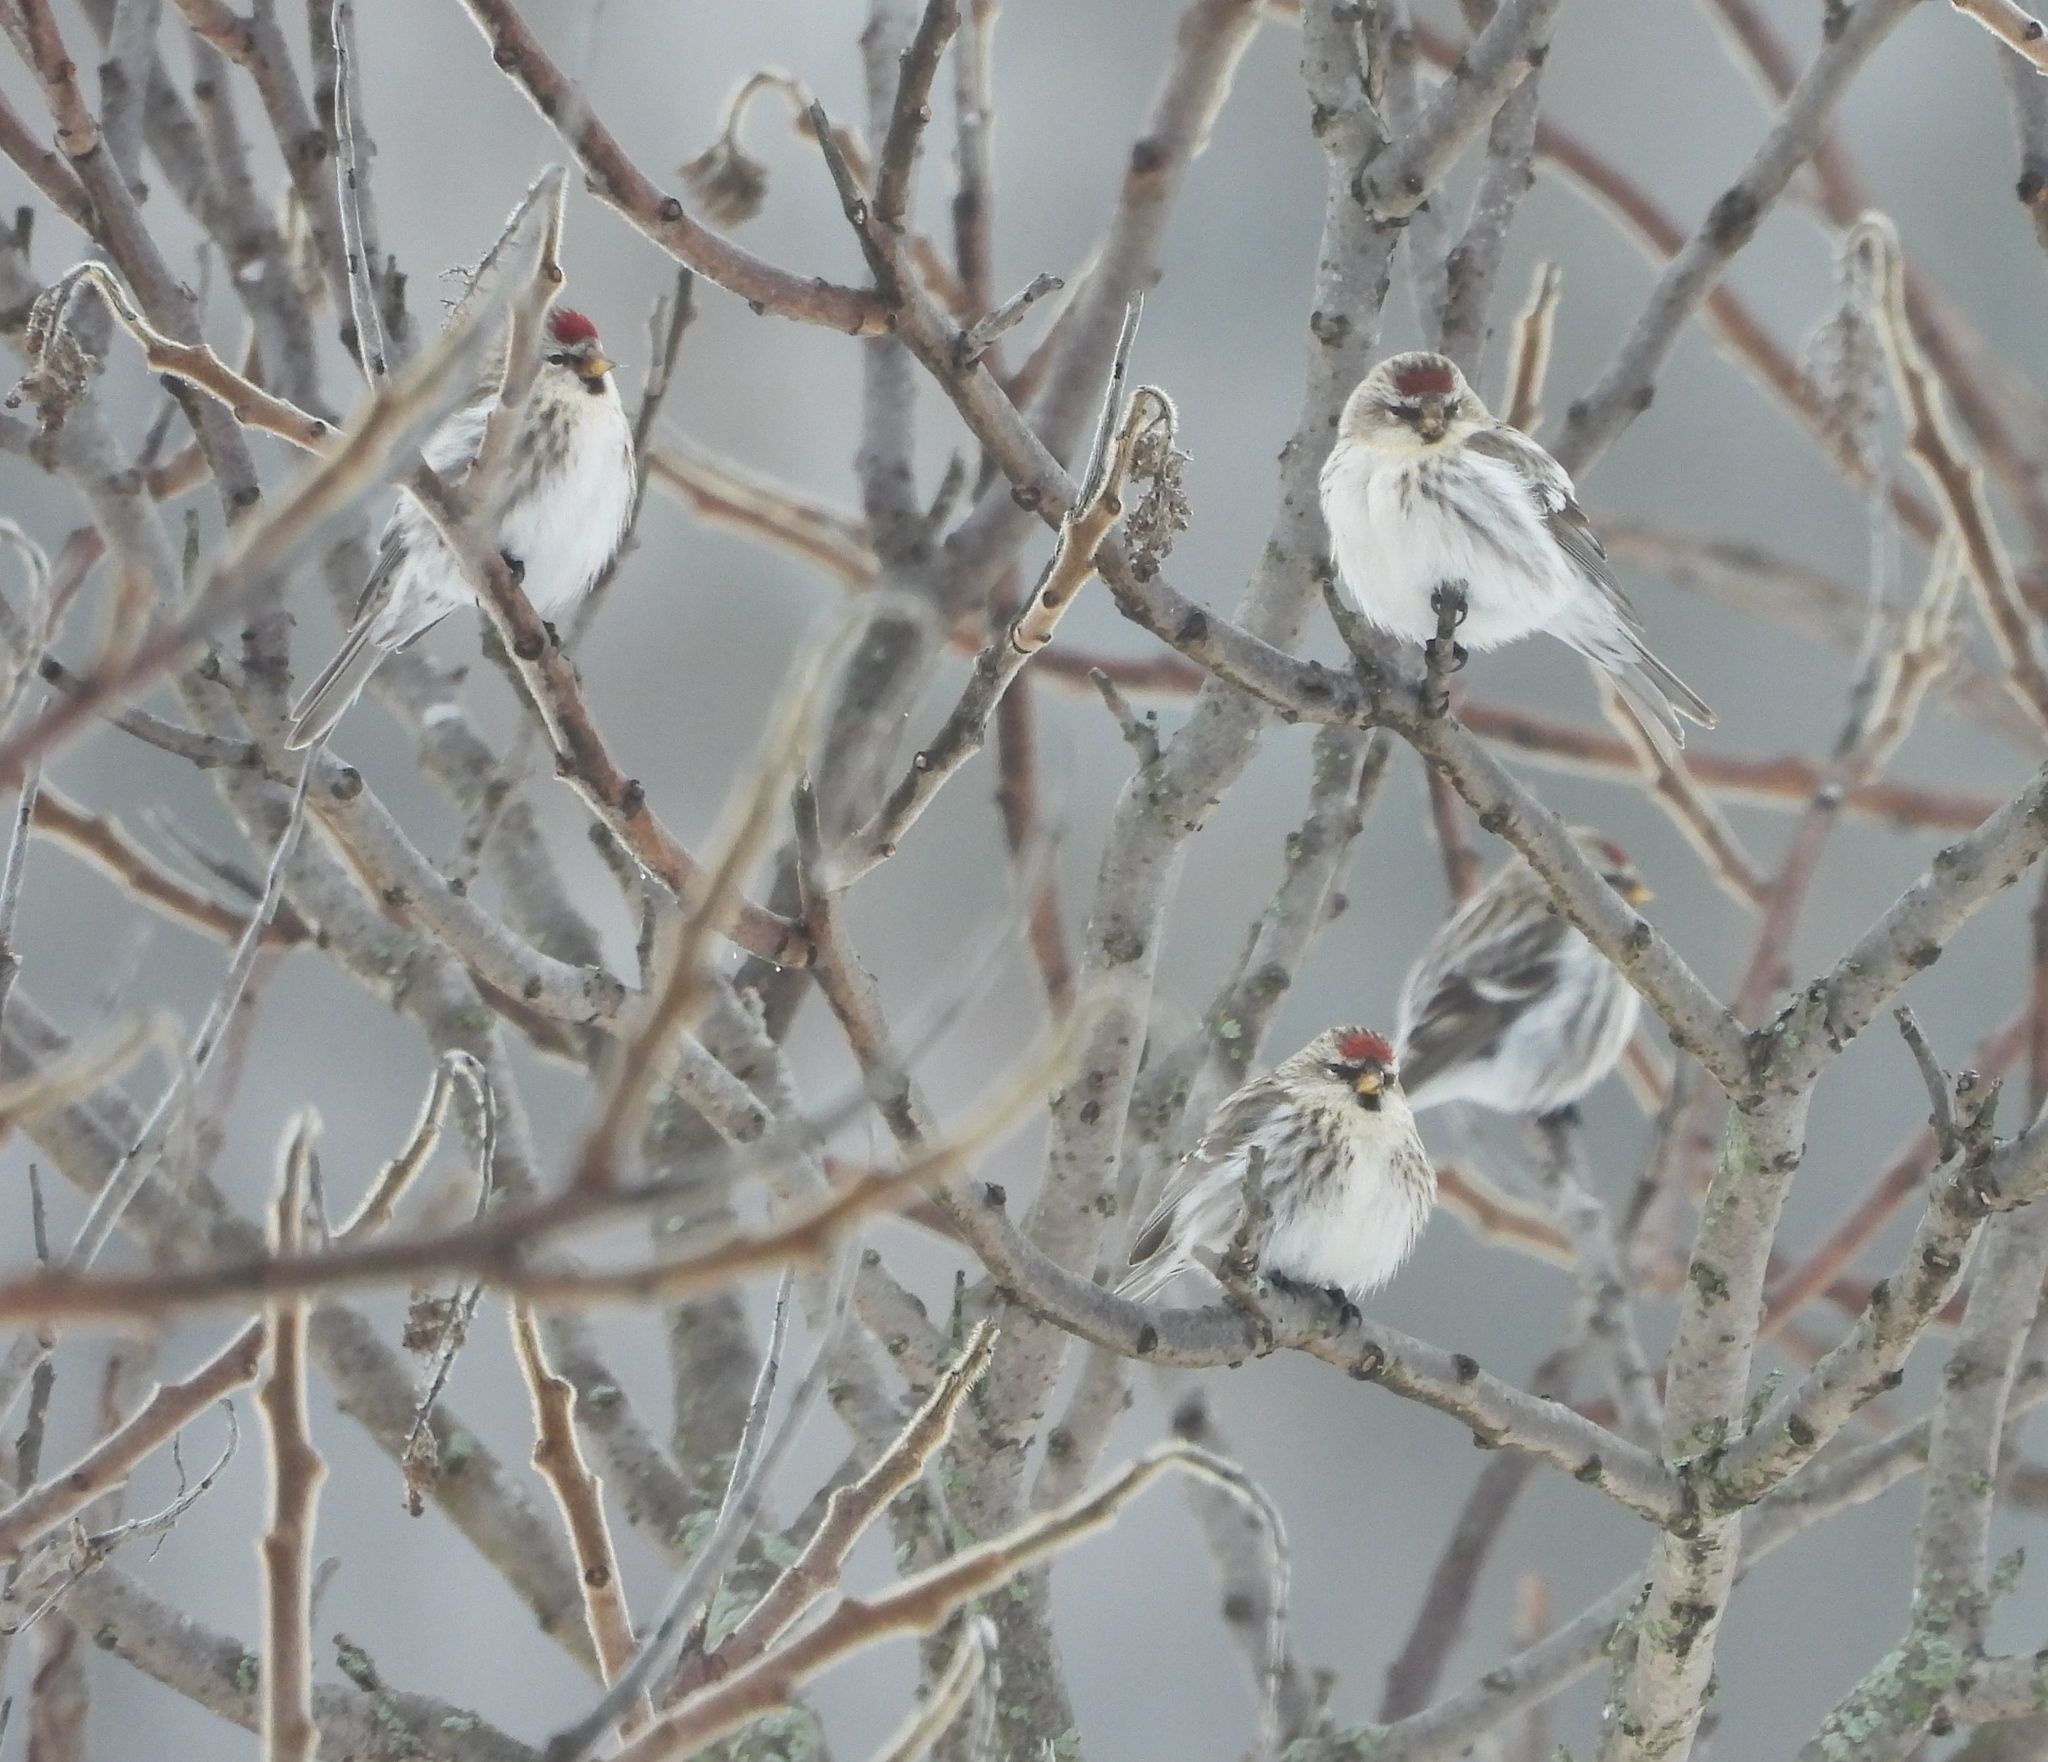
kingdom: Animalia
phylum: Chordata
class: Aves
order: Passeriformes
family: Fringillidae
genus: Acanthis
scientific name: Acanthis flammea
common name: Common redpoll
